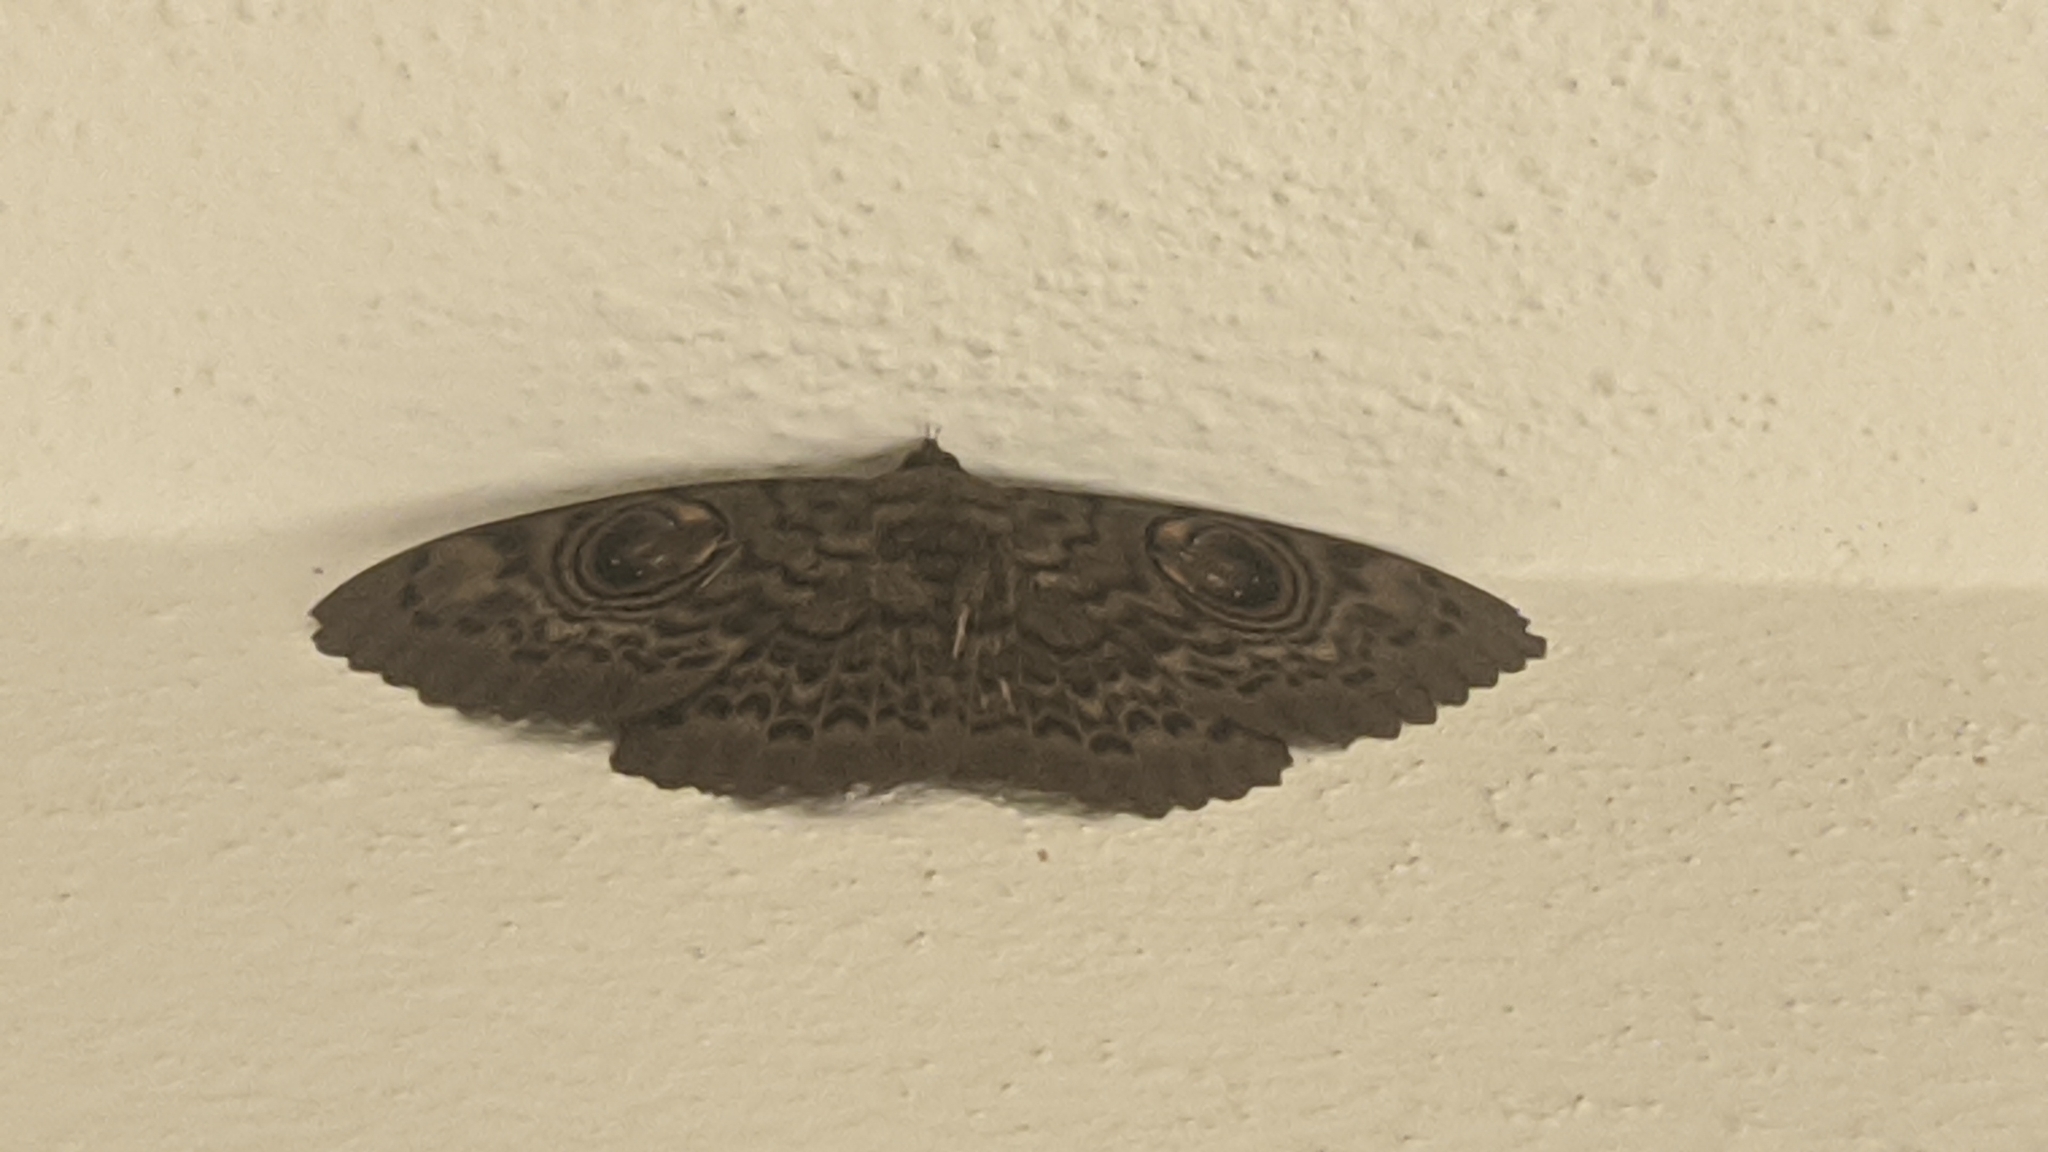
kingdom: Animalia
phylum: Arthropoda
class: Insecta
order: Lepidoptera
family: Erebidae
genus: Erebus
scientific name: Erebus macrops
